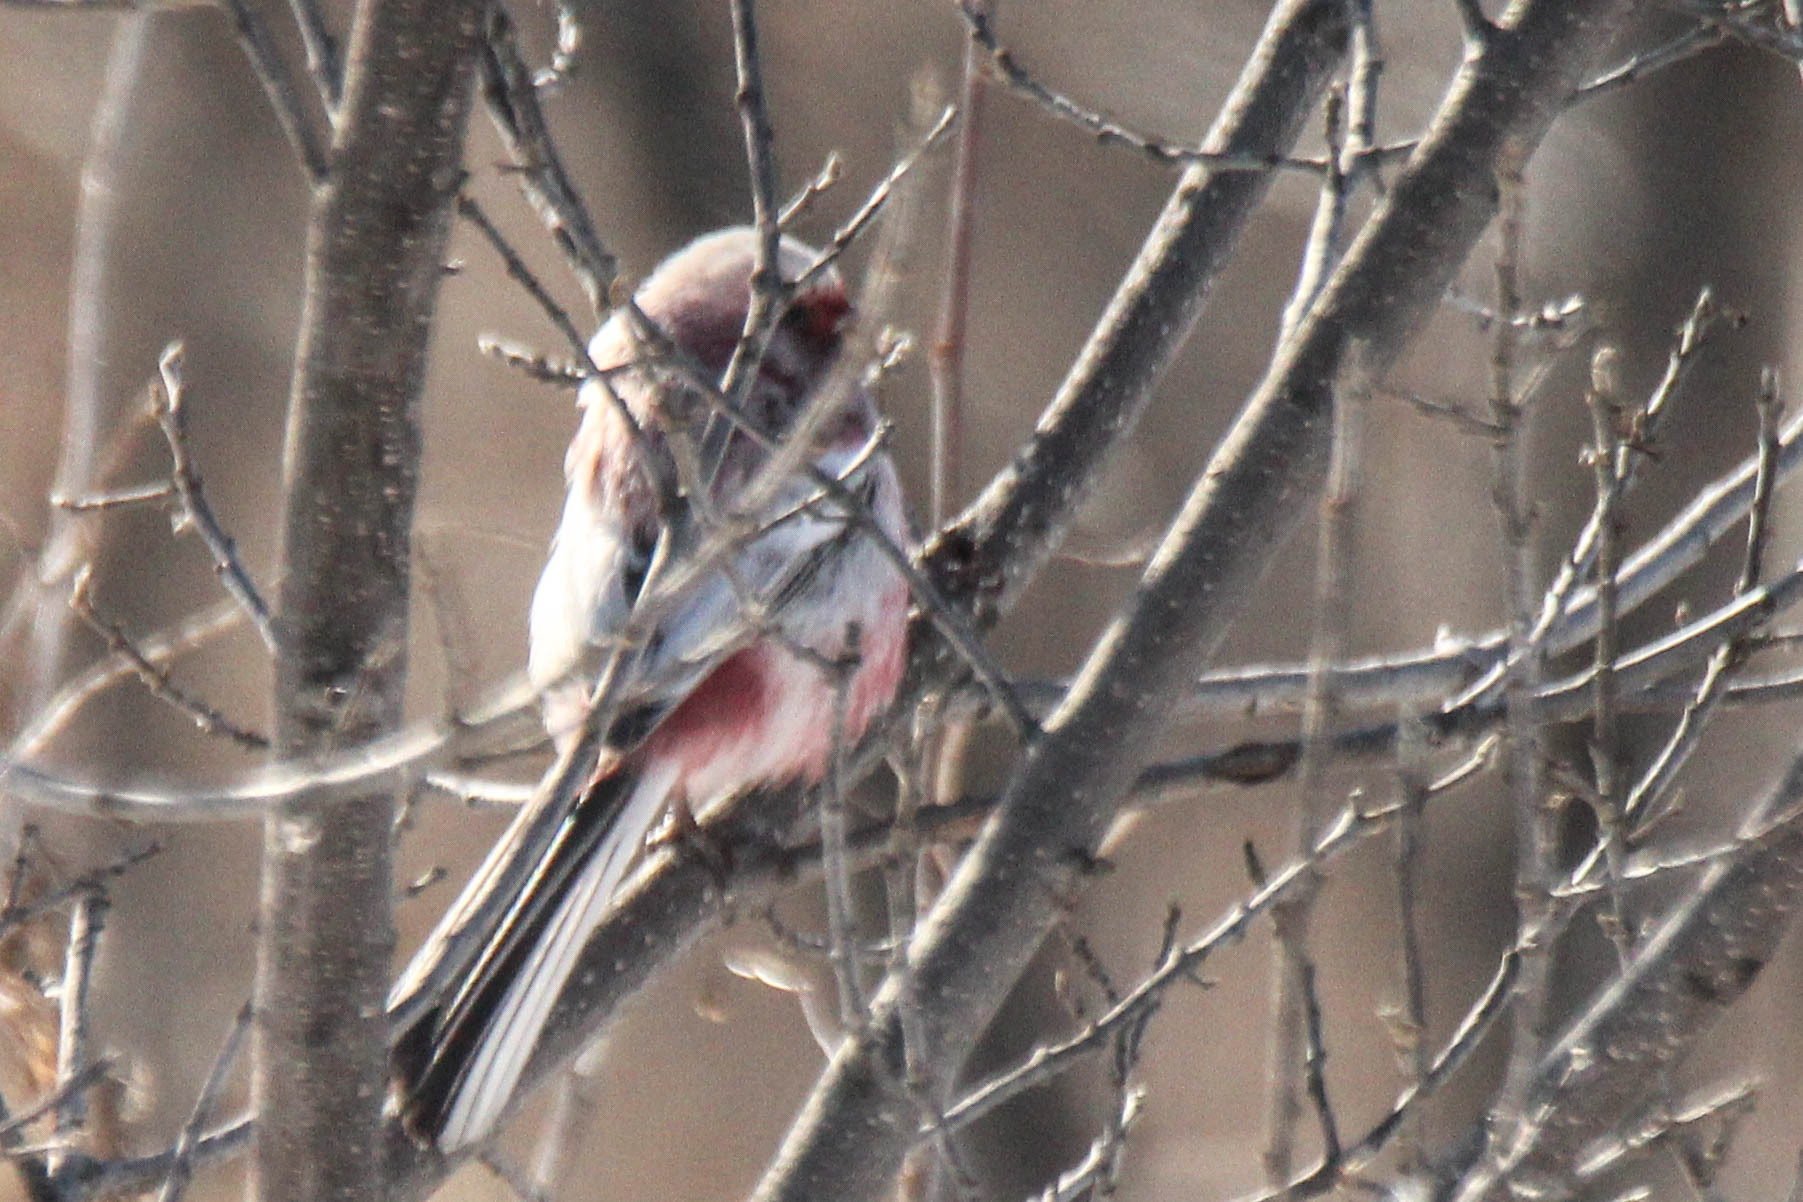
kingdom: Animalia
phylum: Chordata
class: Aves
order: Passeriformes
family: Fringillidae
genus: Carpodacus
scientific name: Carpodacus sibiricus
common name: Long-tailed rosefinch
